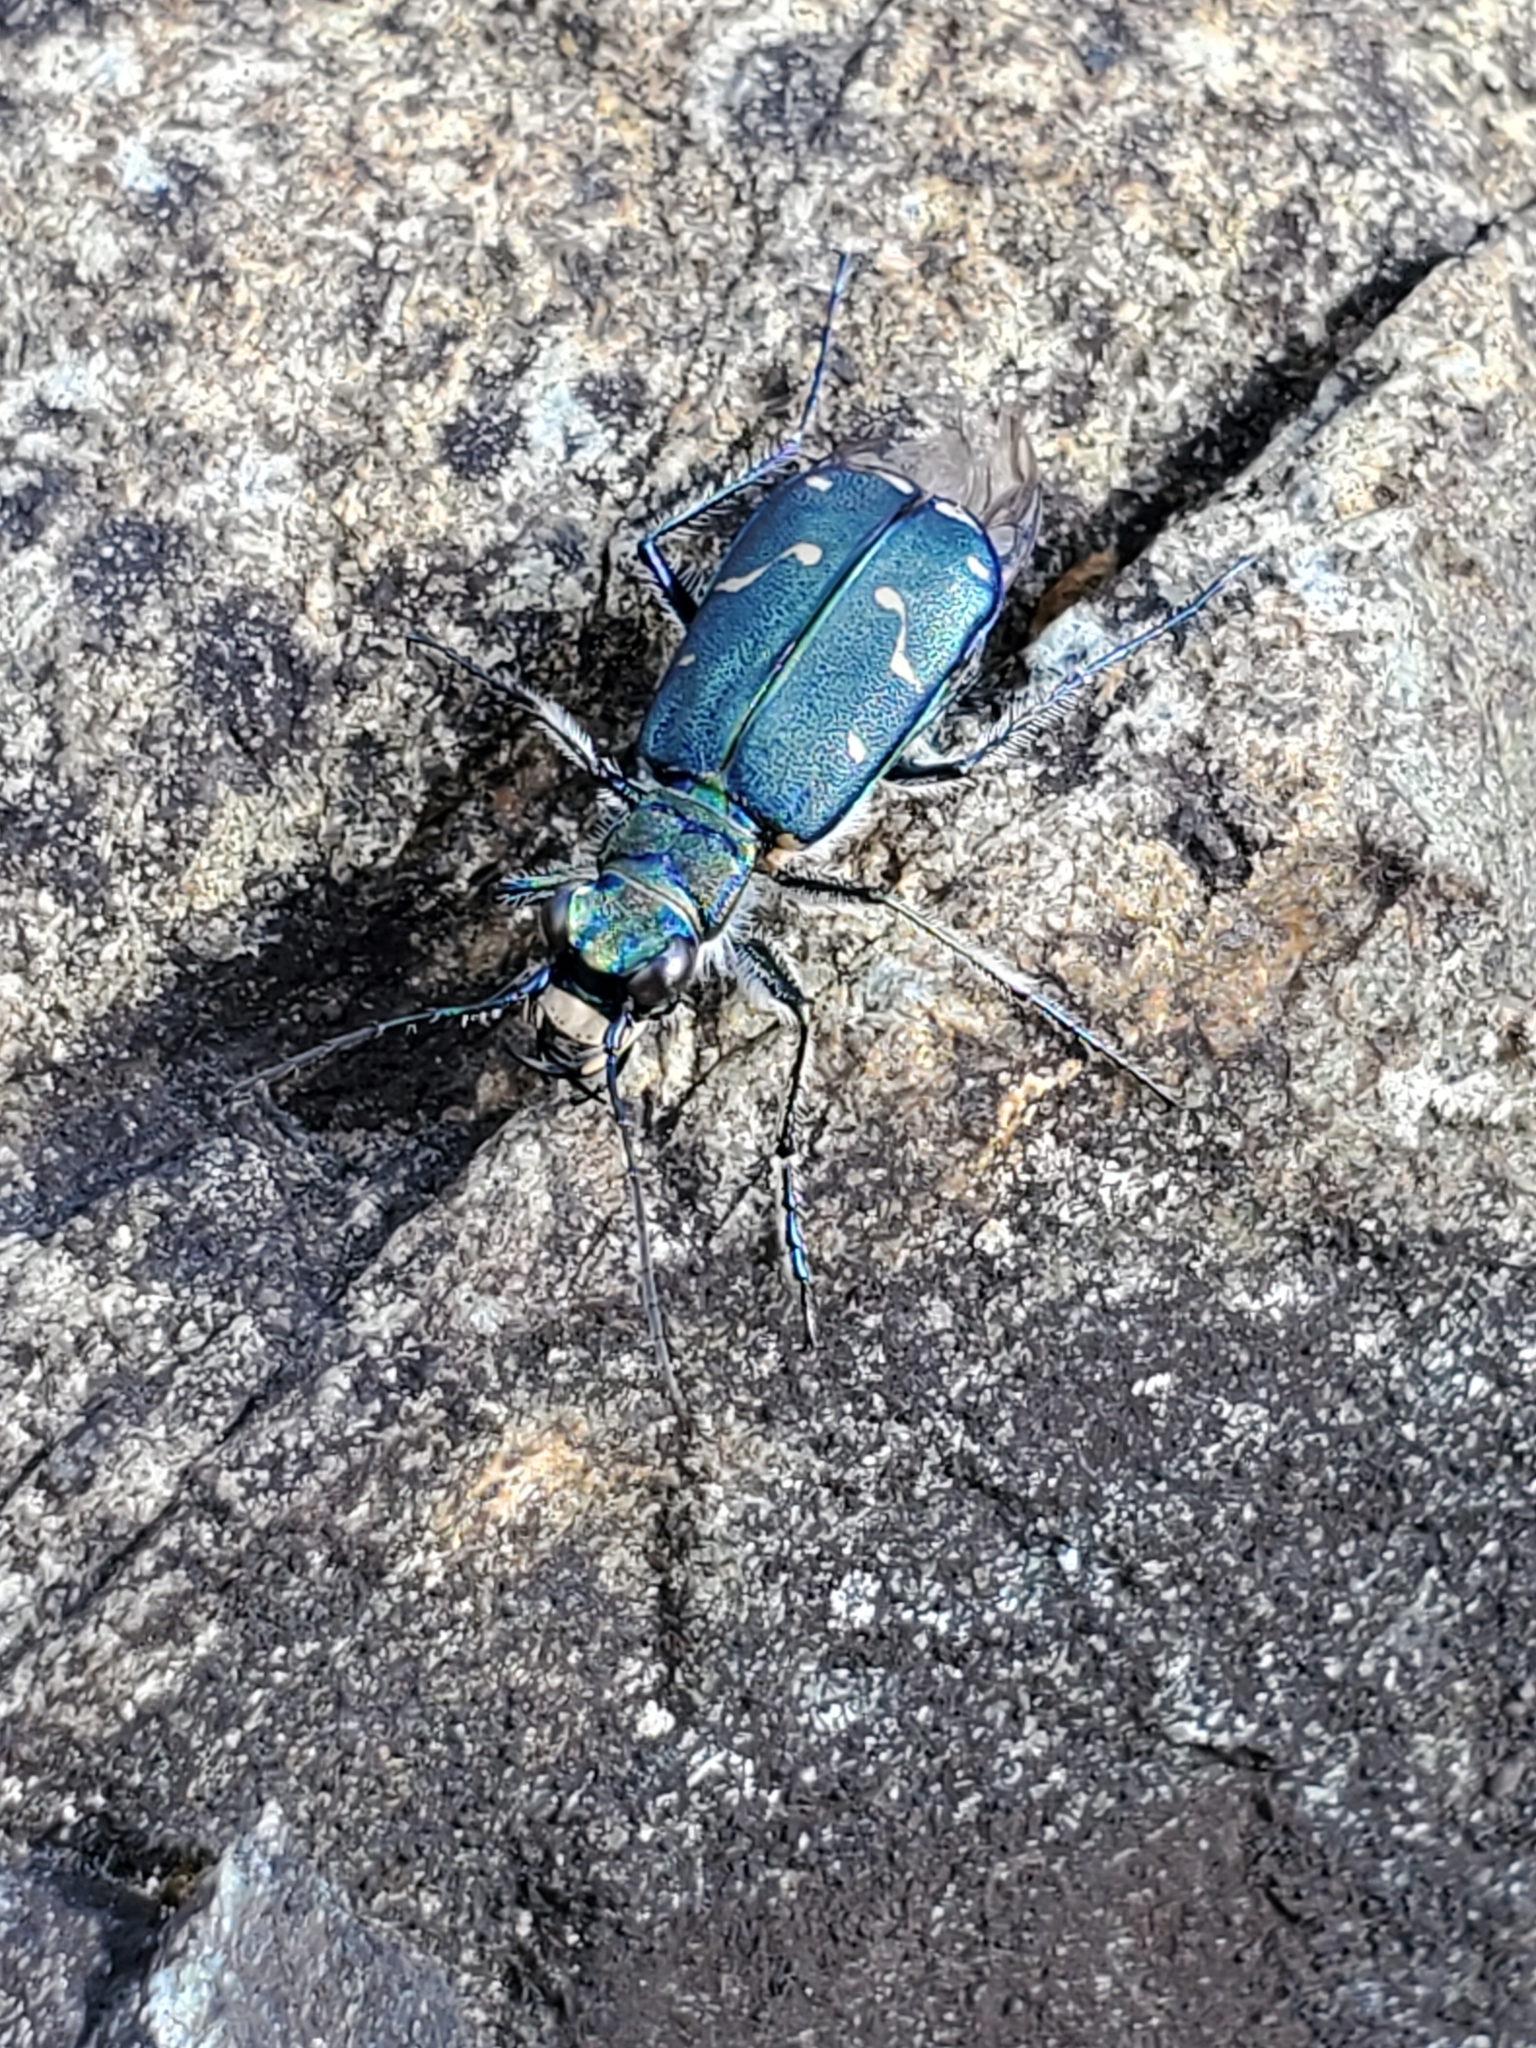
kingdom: Animalia
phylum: Arthropoda
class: Insecta
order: Coleoptera
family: Carabidae
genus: Cicindela
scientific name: Cicindela oregona
